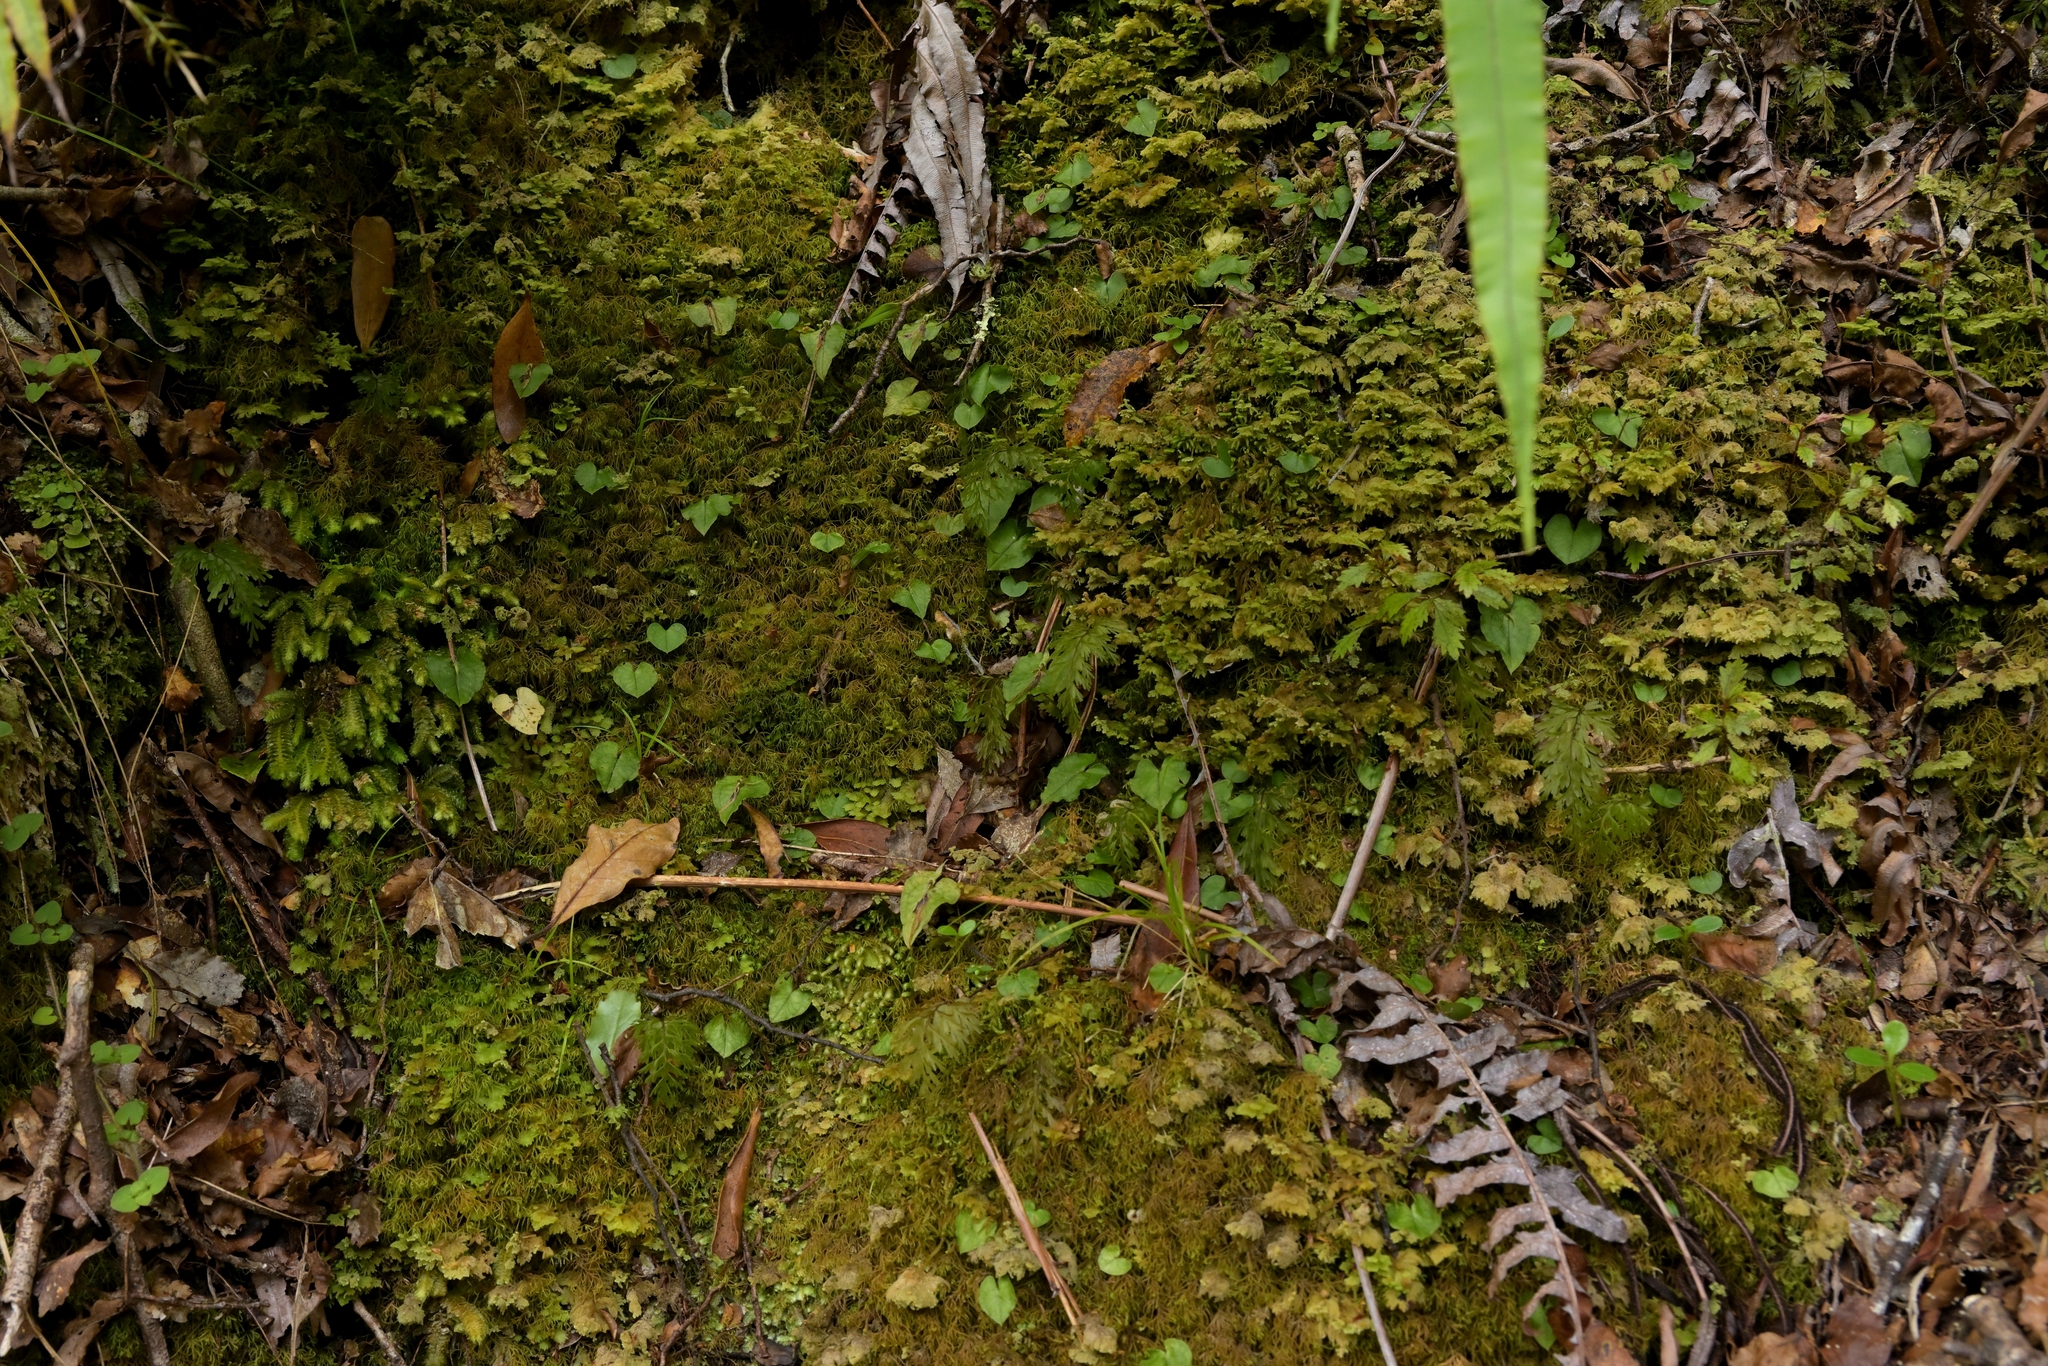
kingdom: Plantae
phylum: Tracheophyta
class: Liliopsida
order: Asparagales
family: Orchidaceae
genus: Corybas
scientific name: Corybas acuminatus
